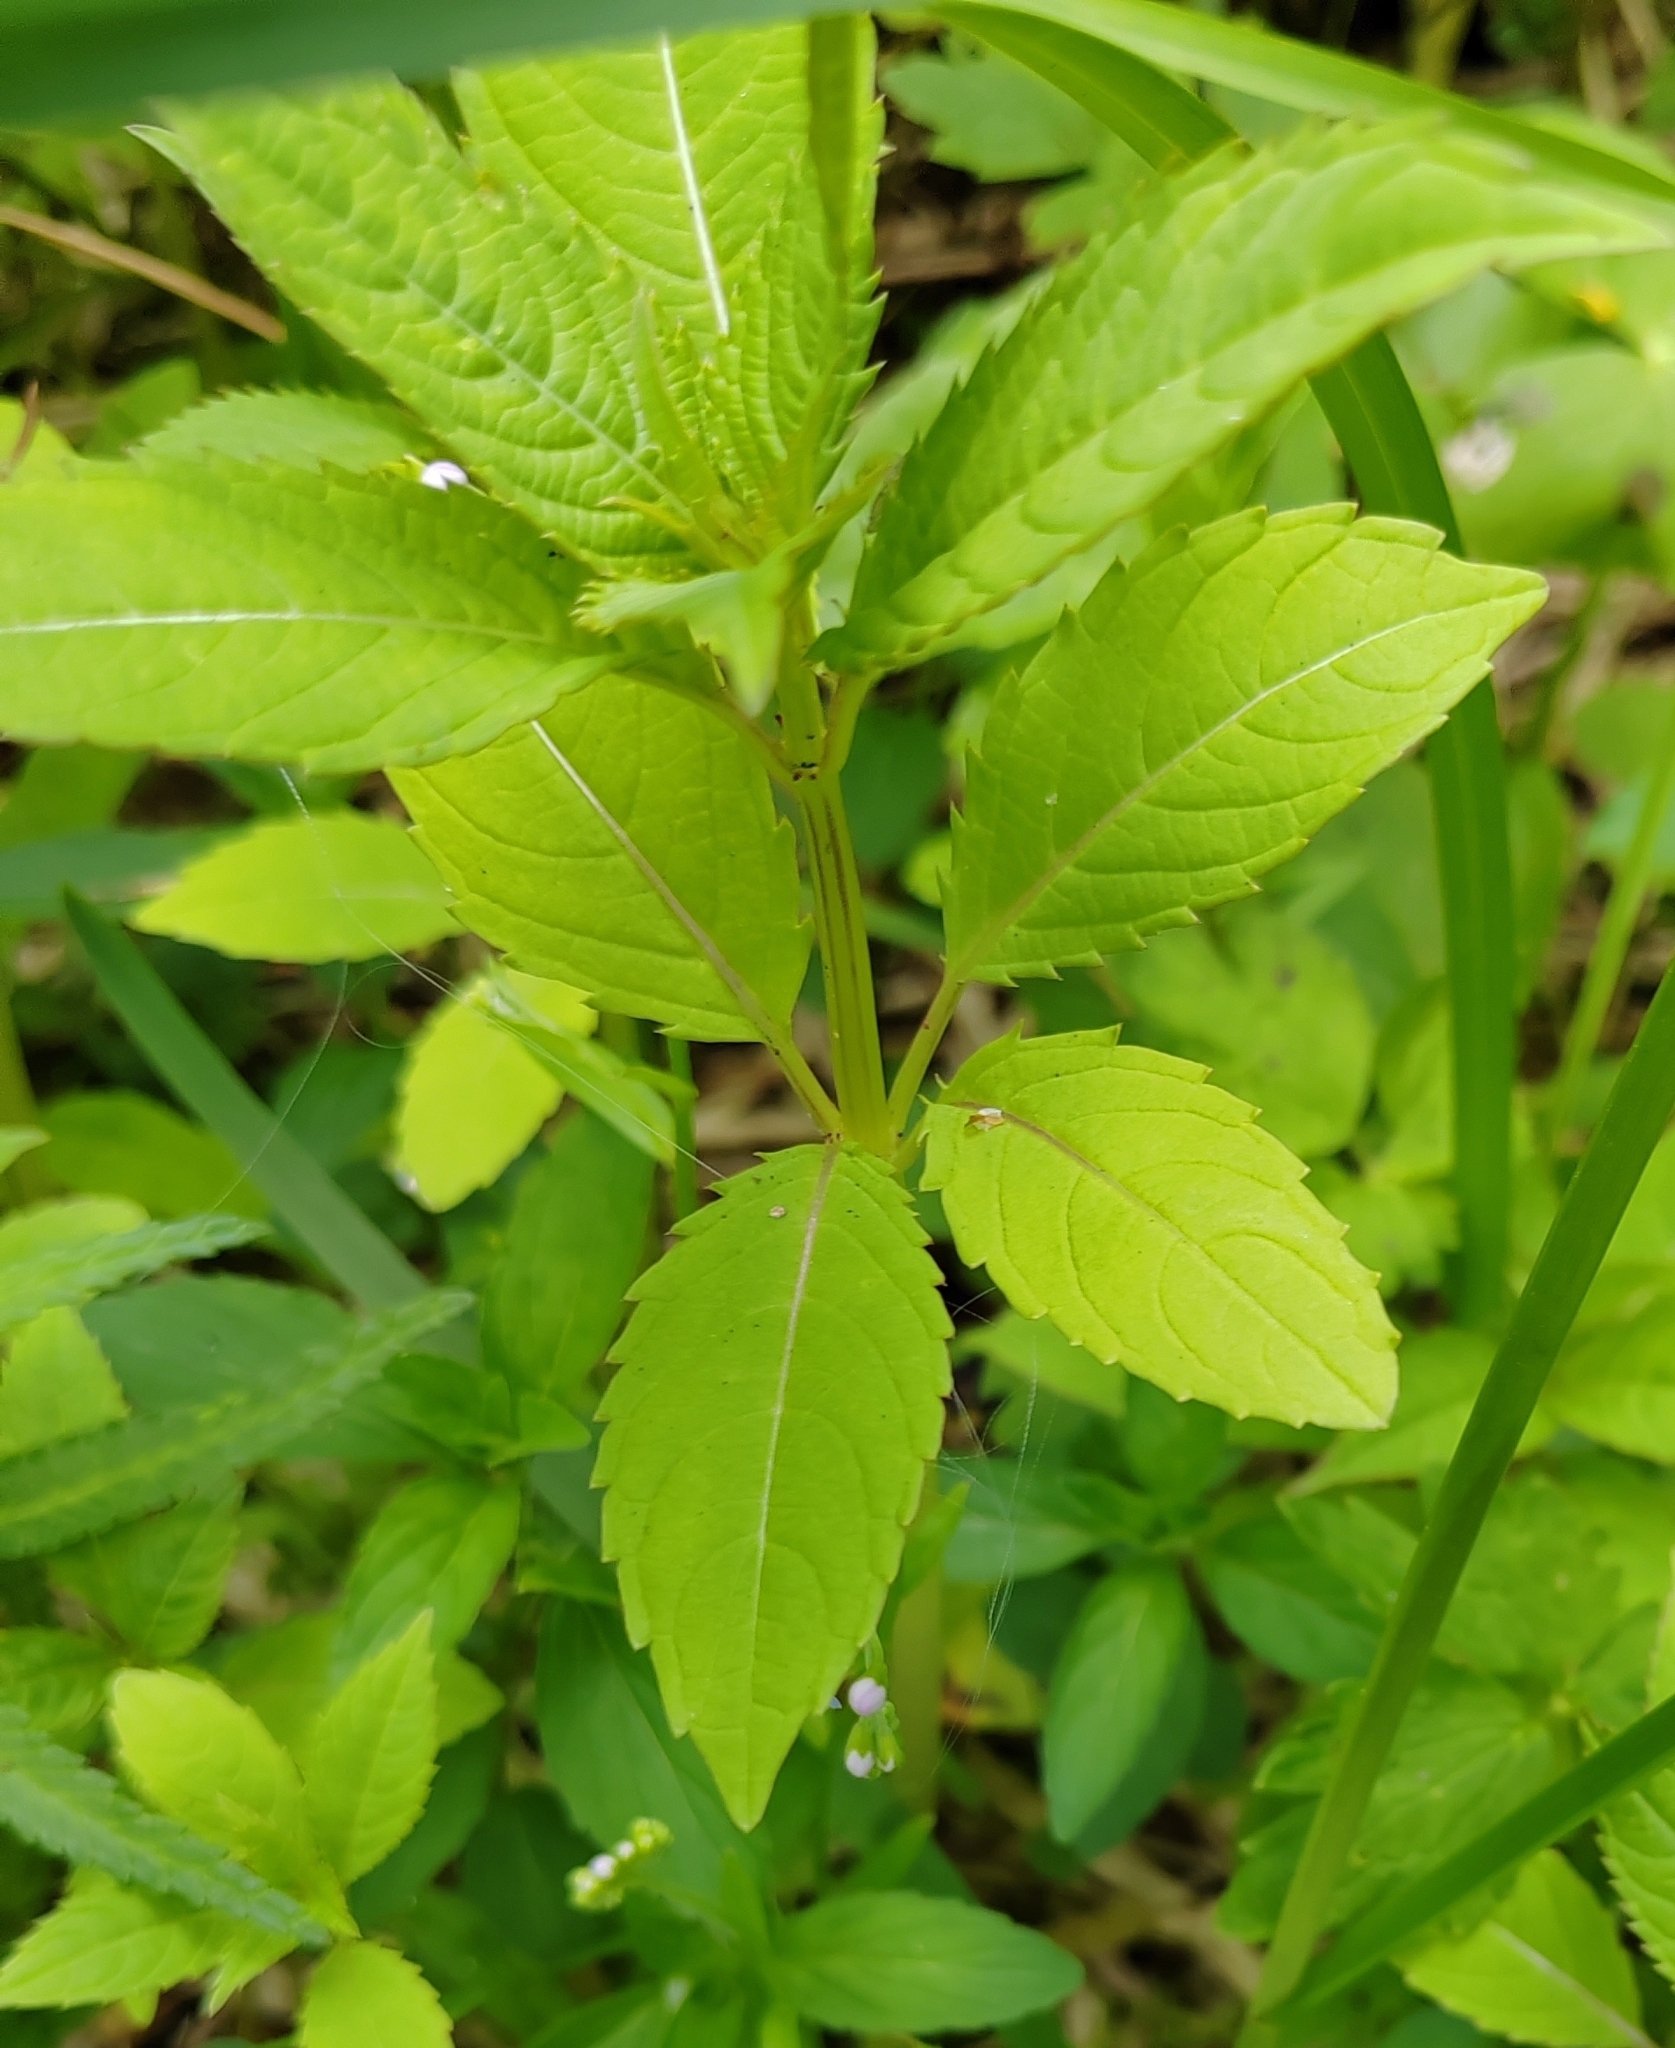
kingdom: Plantae
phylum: Tracheophyta
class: Magnoliopsida
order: Ericales
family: Balsaminaceae
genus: Impatiens
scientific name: Impatiens glandulifera
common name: Himalayan balsam
